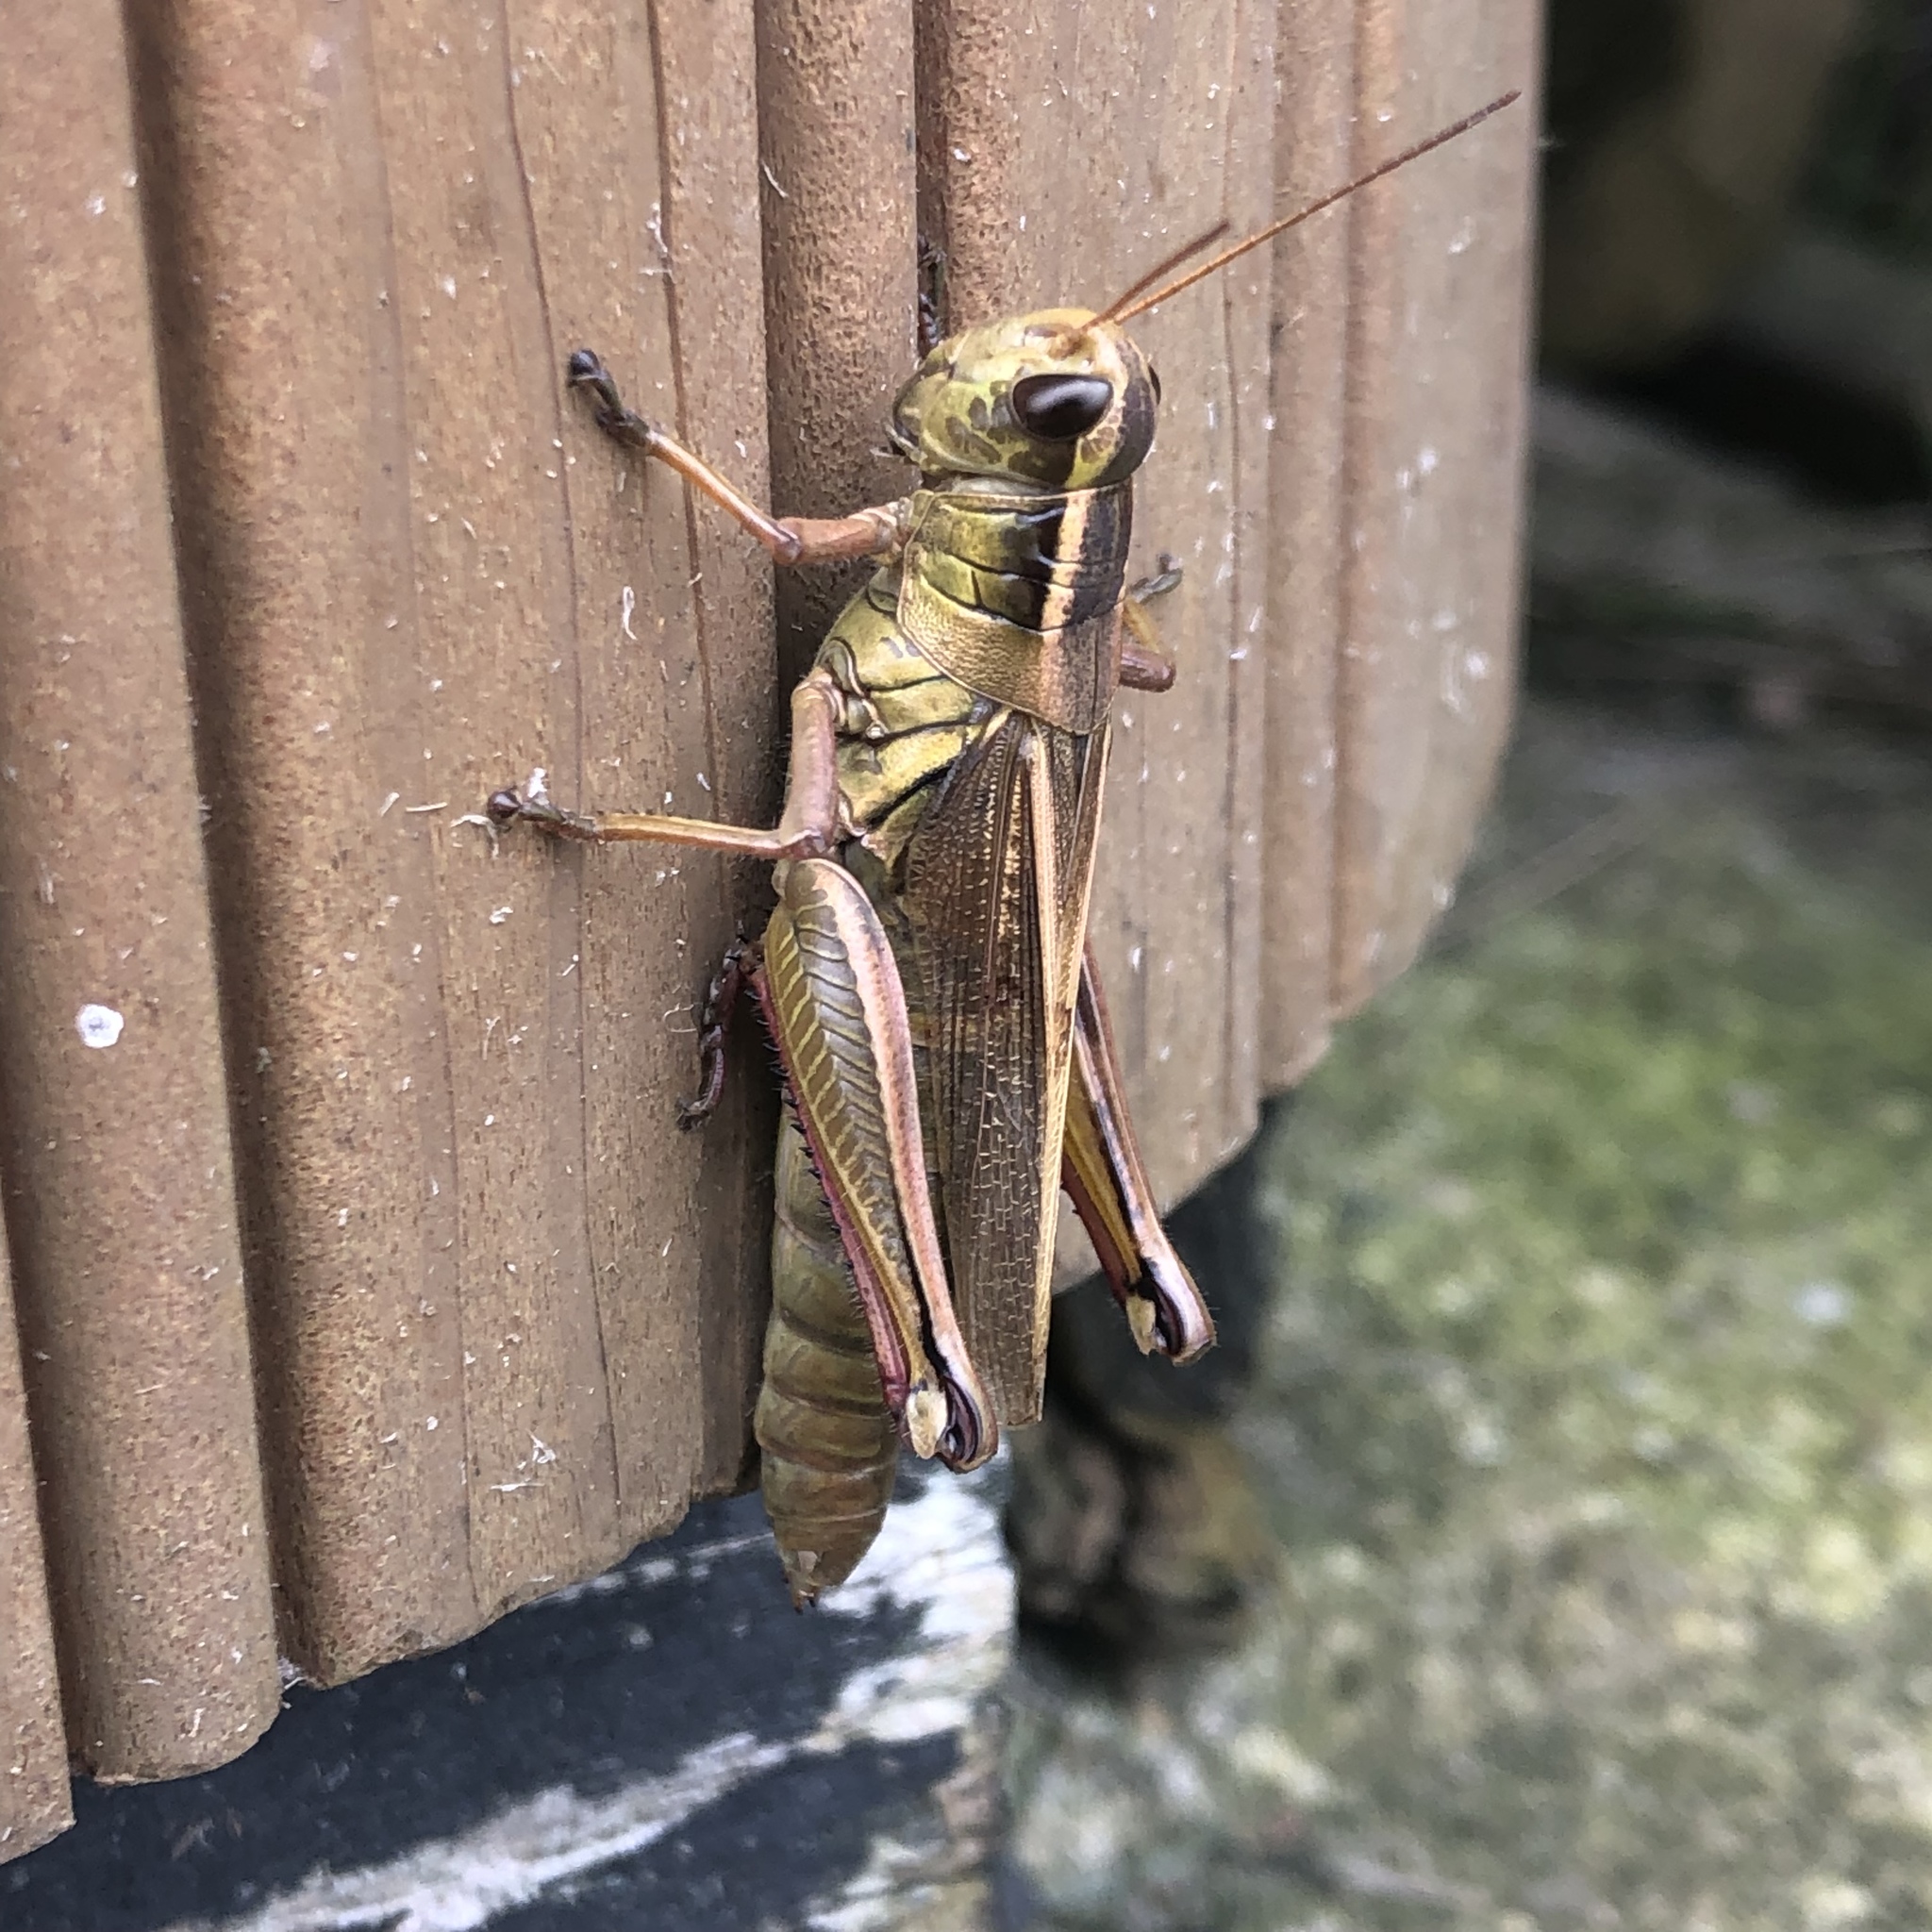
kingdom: Animalia
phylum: Arthropoda
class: Insecta
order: Orthoptera
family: Acrididae
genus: Melanoplus
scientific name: Melanoplus bivittatus
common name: Two-striped grasshopper
